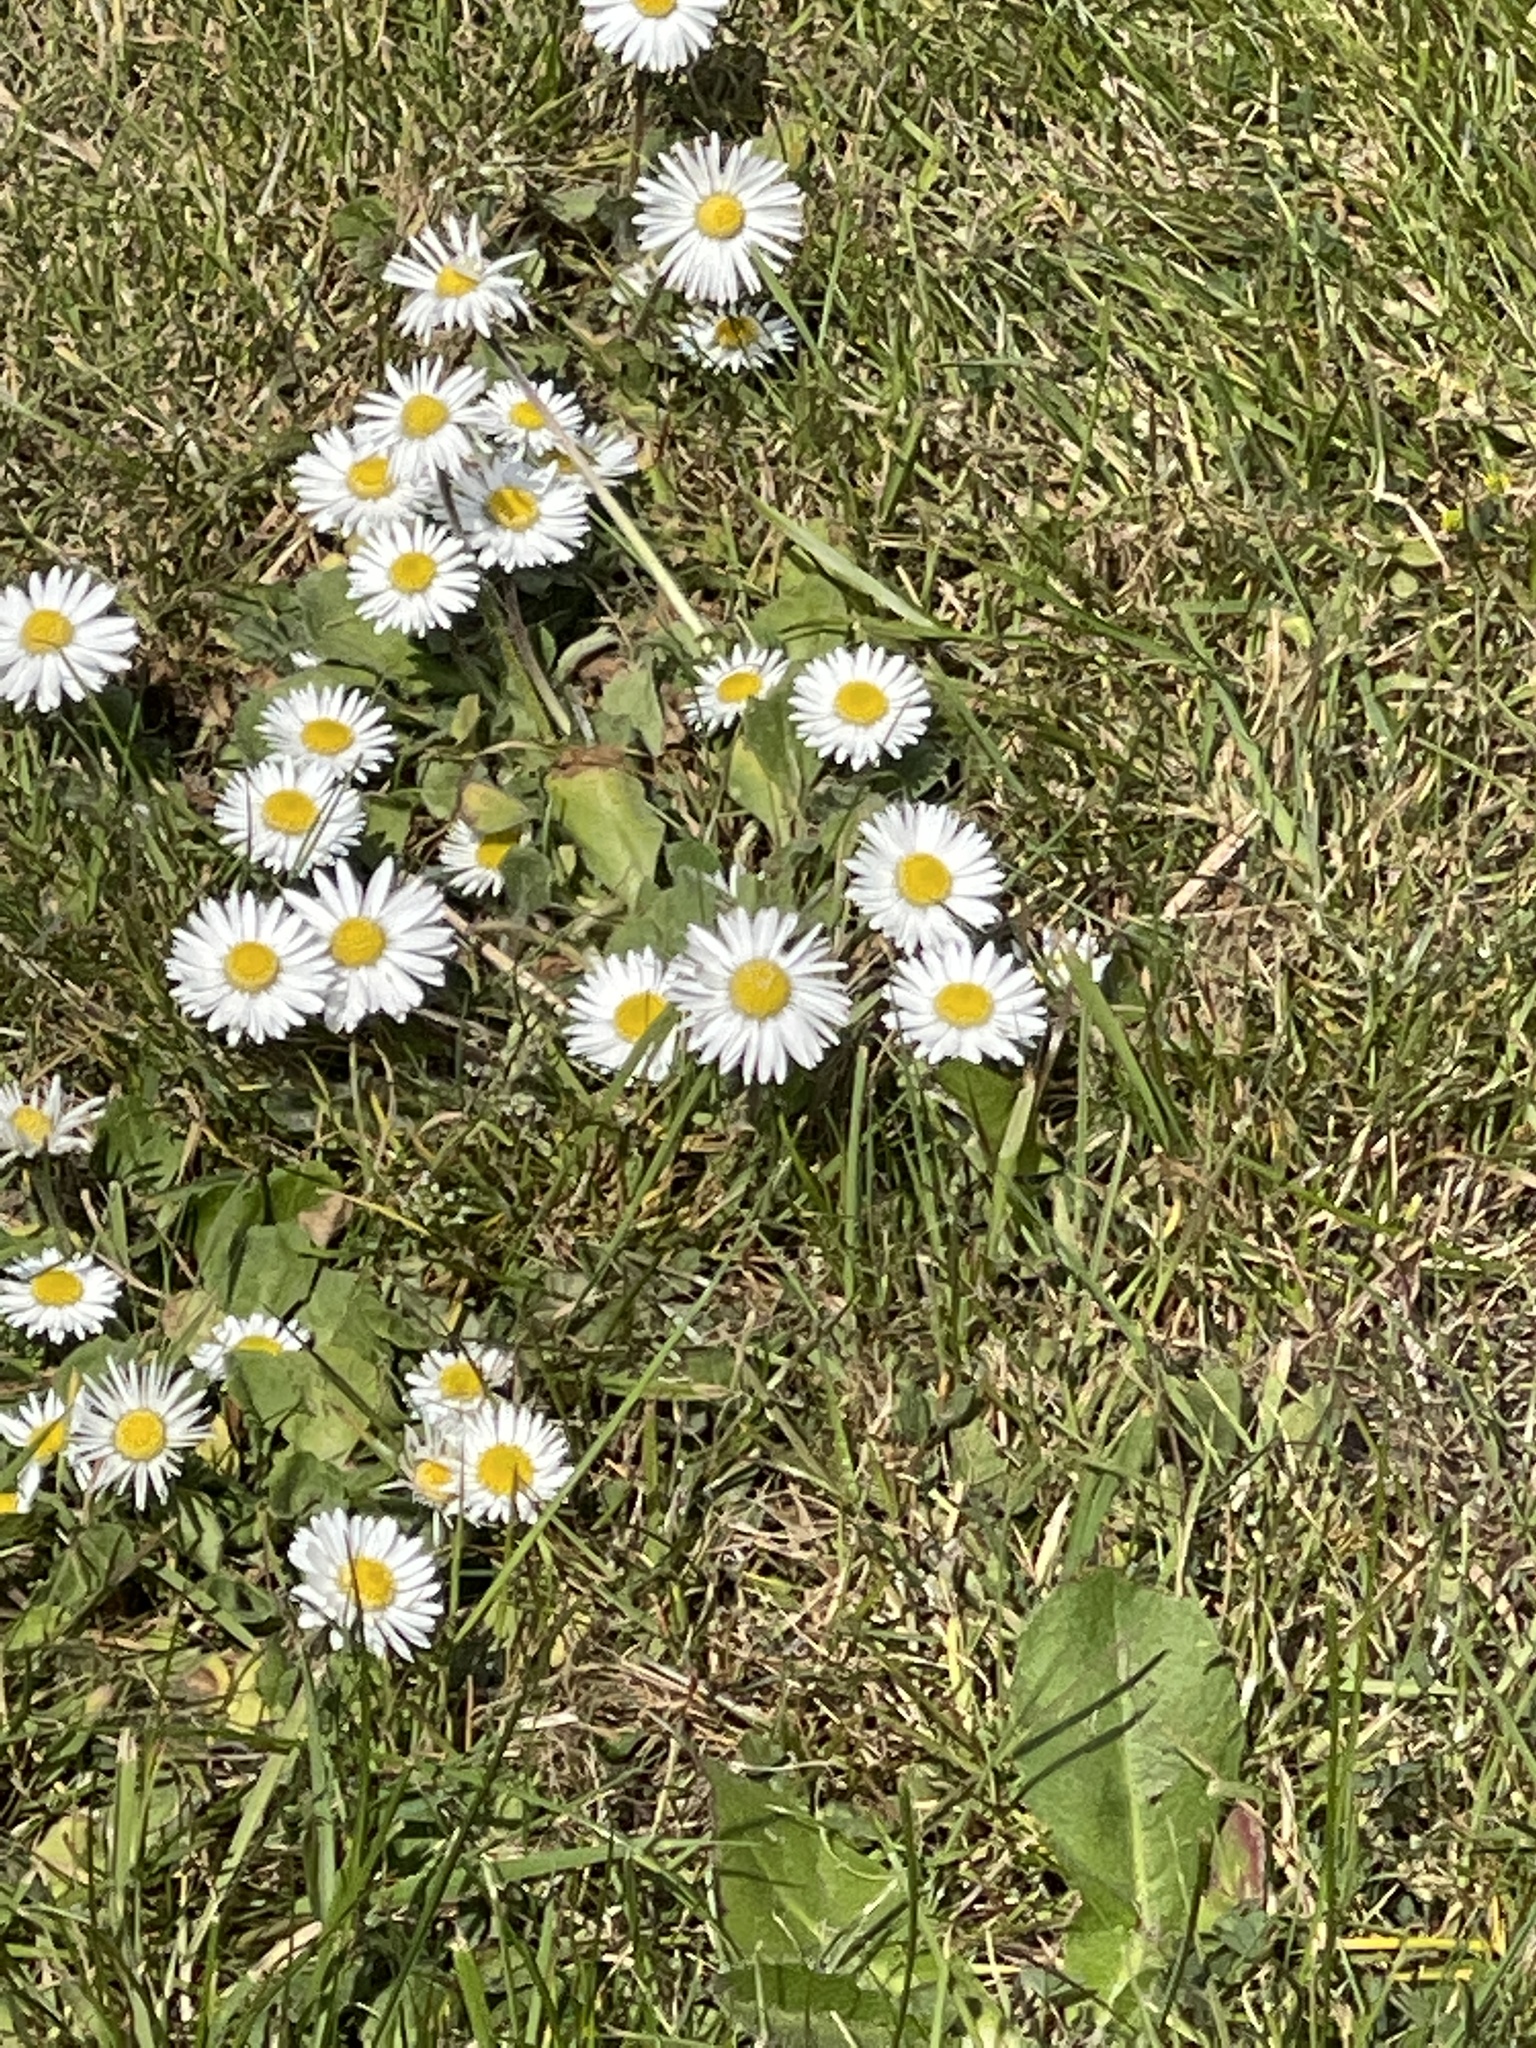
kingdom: Plantae
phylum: Tracheophyta
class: Magnoliopsida
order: Asterales
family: Asteraceae
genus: Bellis
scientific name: Bellis perennis
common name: Lawndaisy
